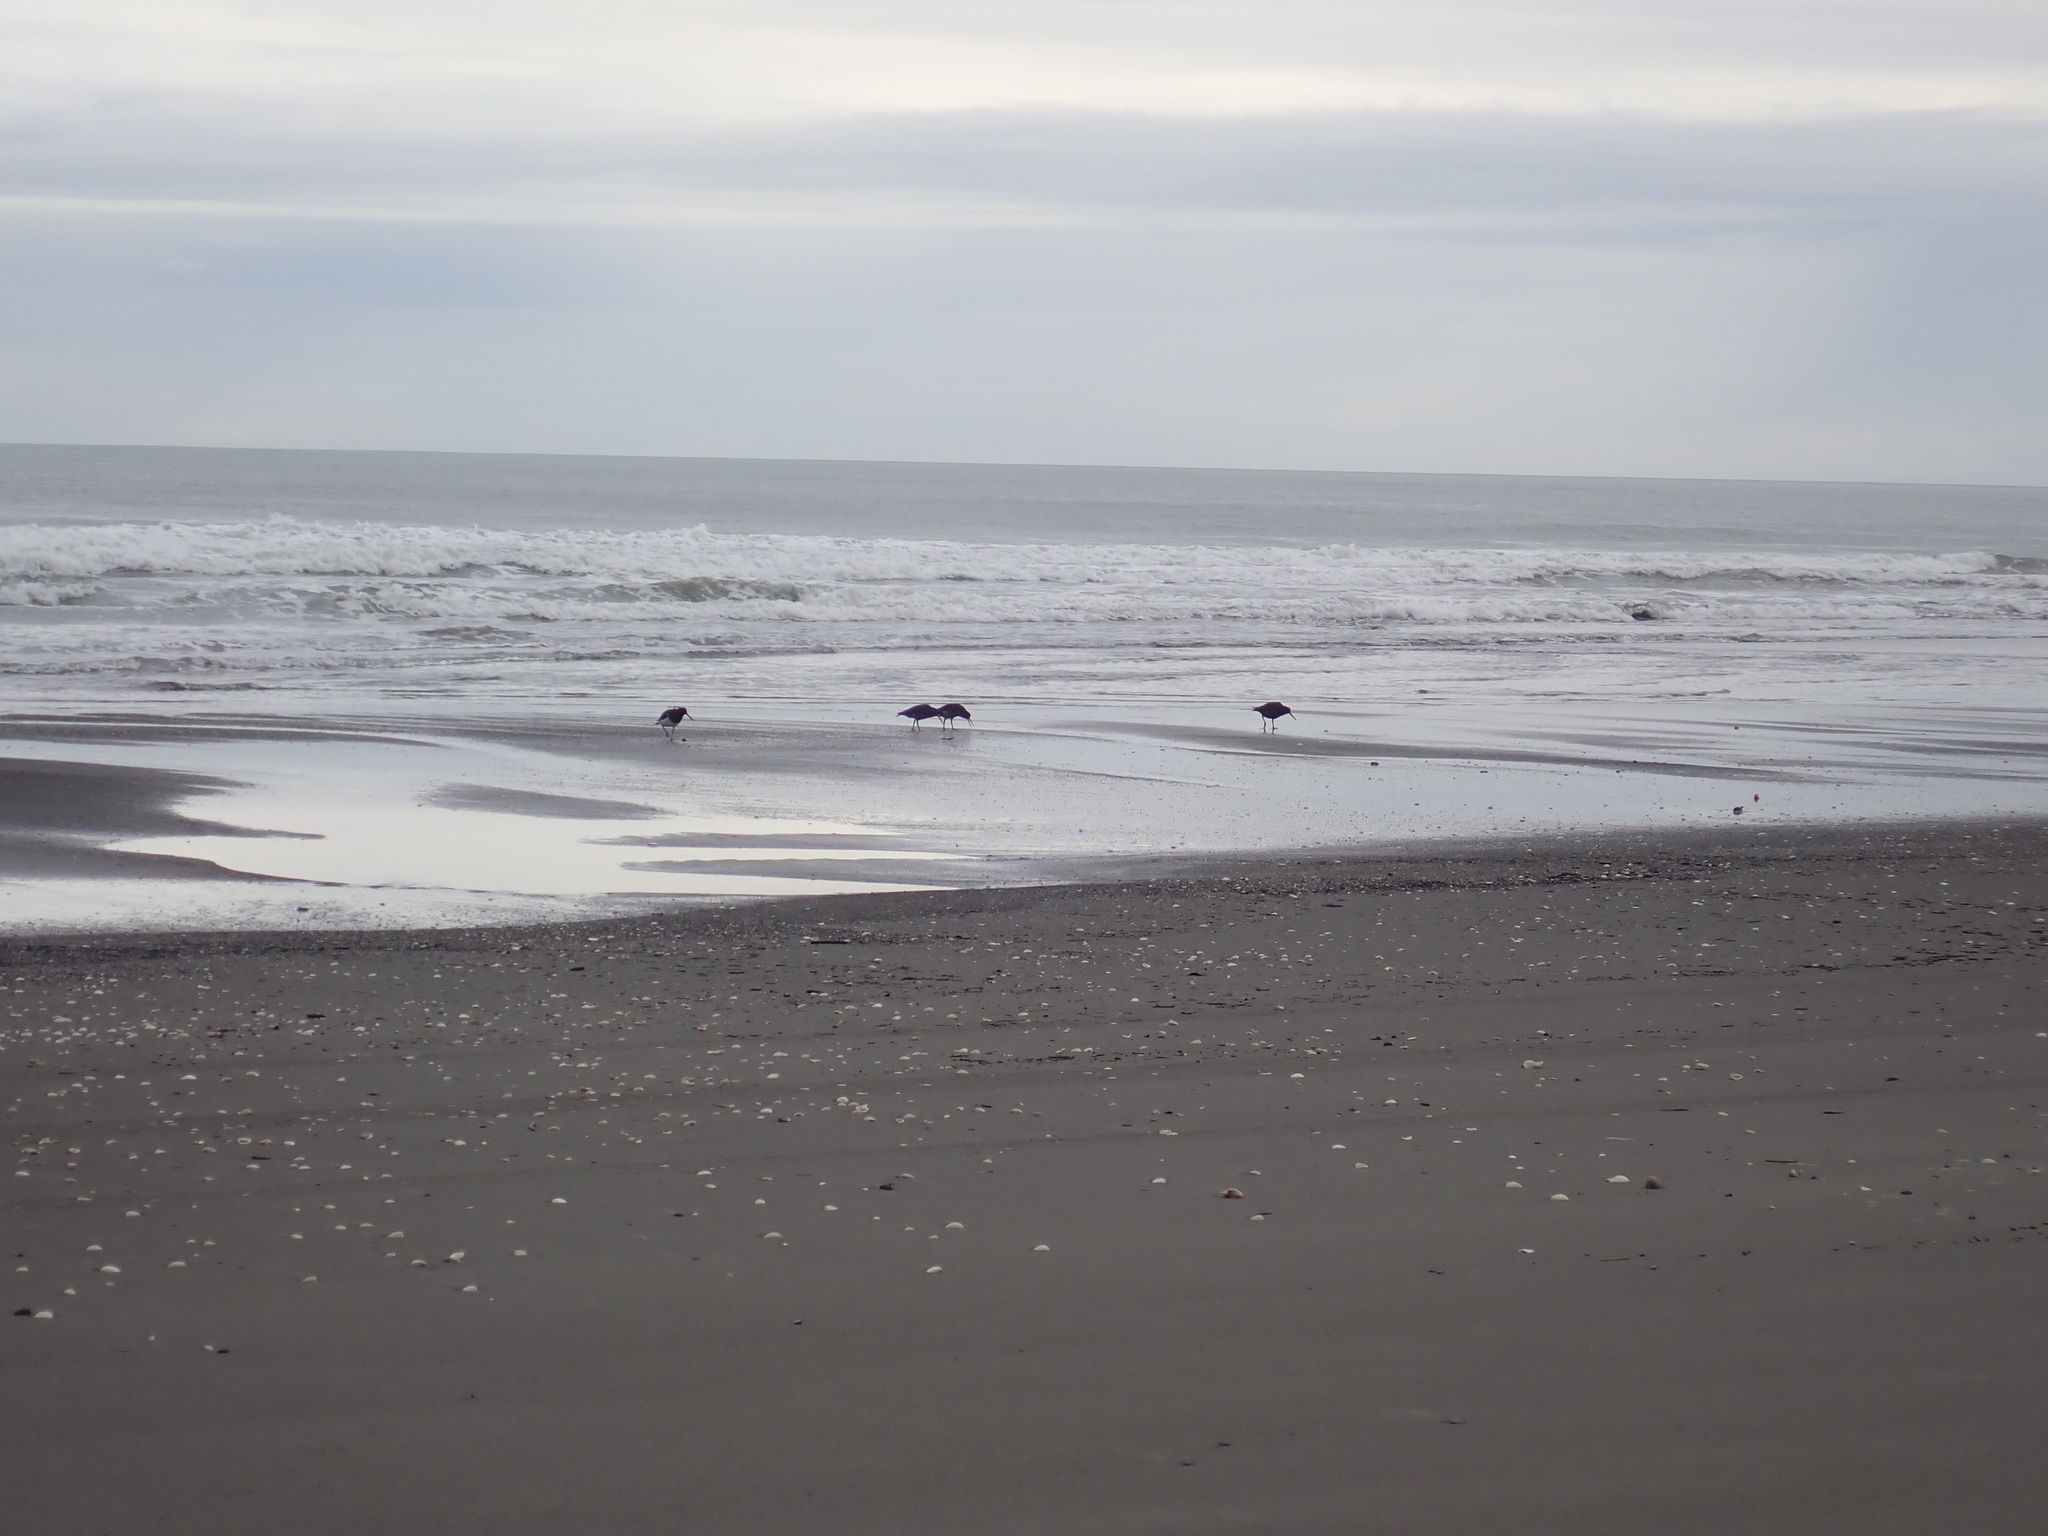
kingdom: Animalia
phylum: Chordata
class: Aves
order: Charadriiformes
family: Haematopodidae
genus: Haematopus
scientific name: Haematopus unicolor
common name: Variable oystercatcher
